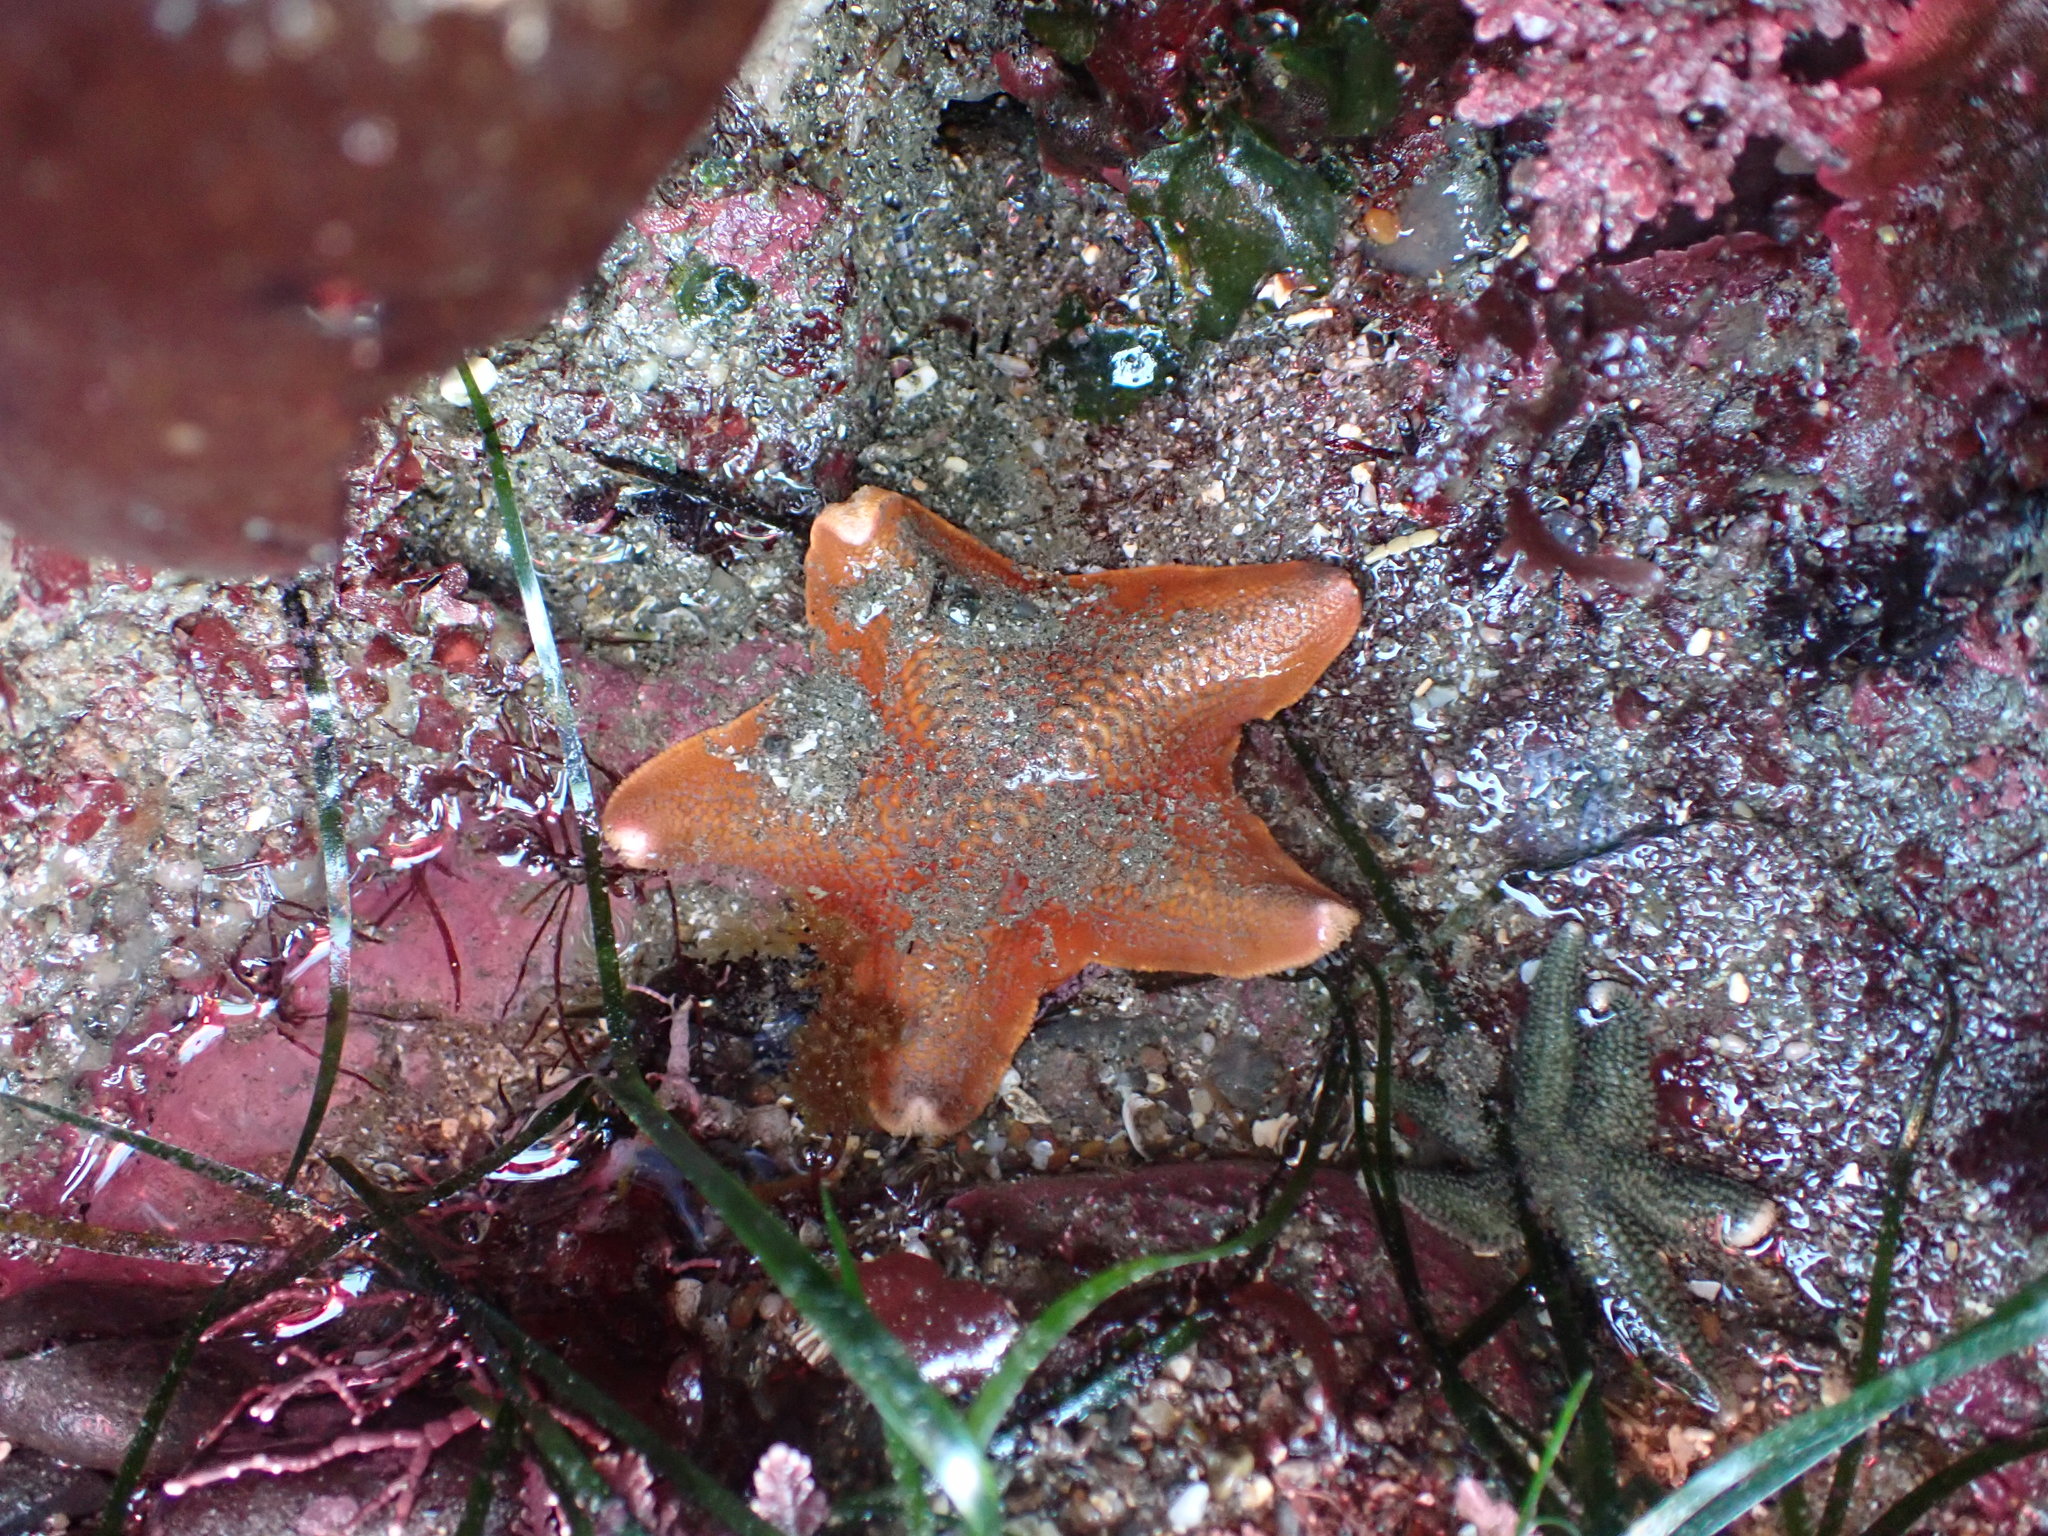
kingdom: Animalia
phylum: Echinodermata
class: Asteroidea
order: Valvatida
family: Asterinidae
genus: Patiria
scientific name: Patiria miniata
